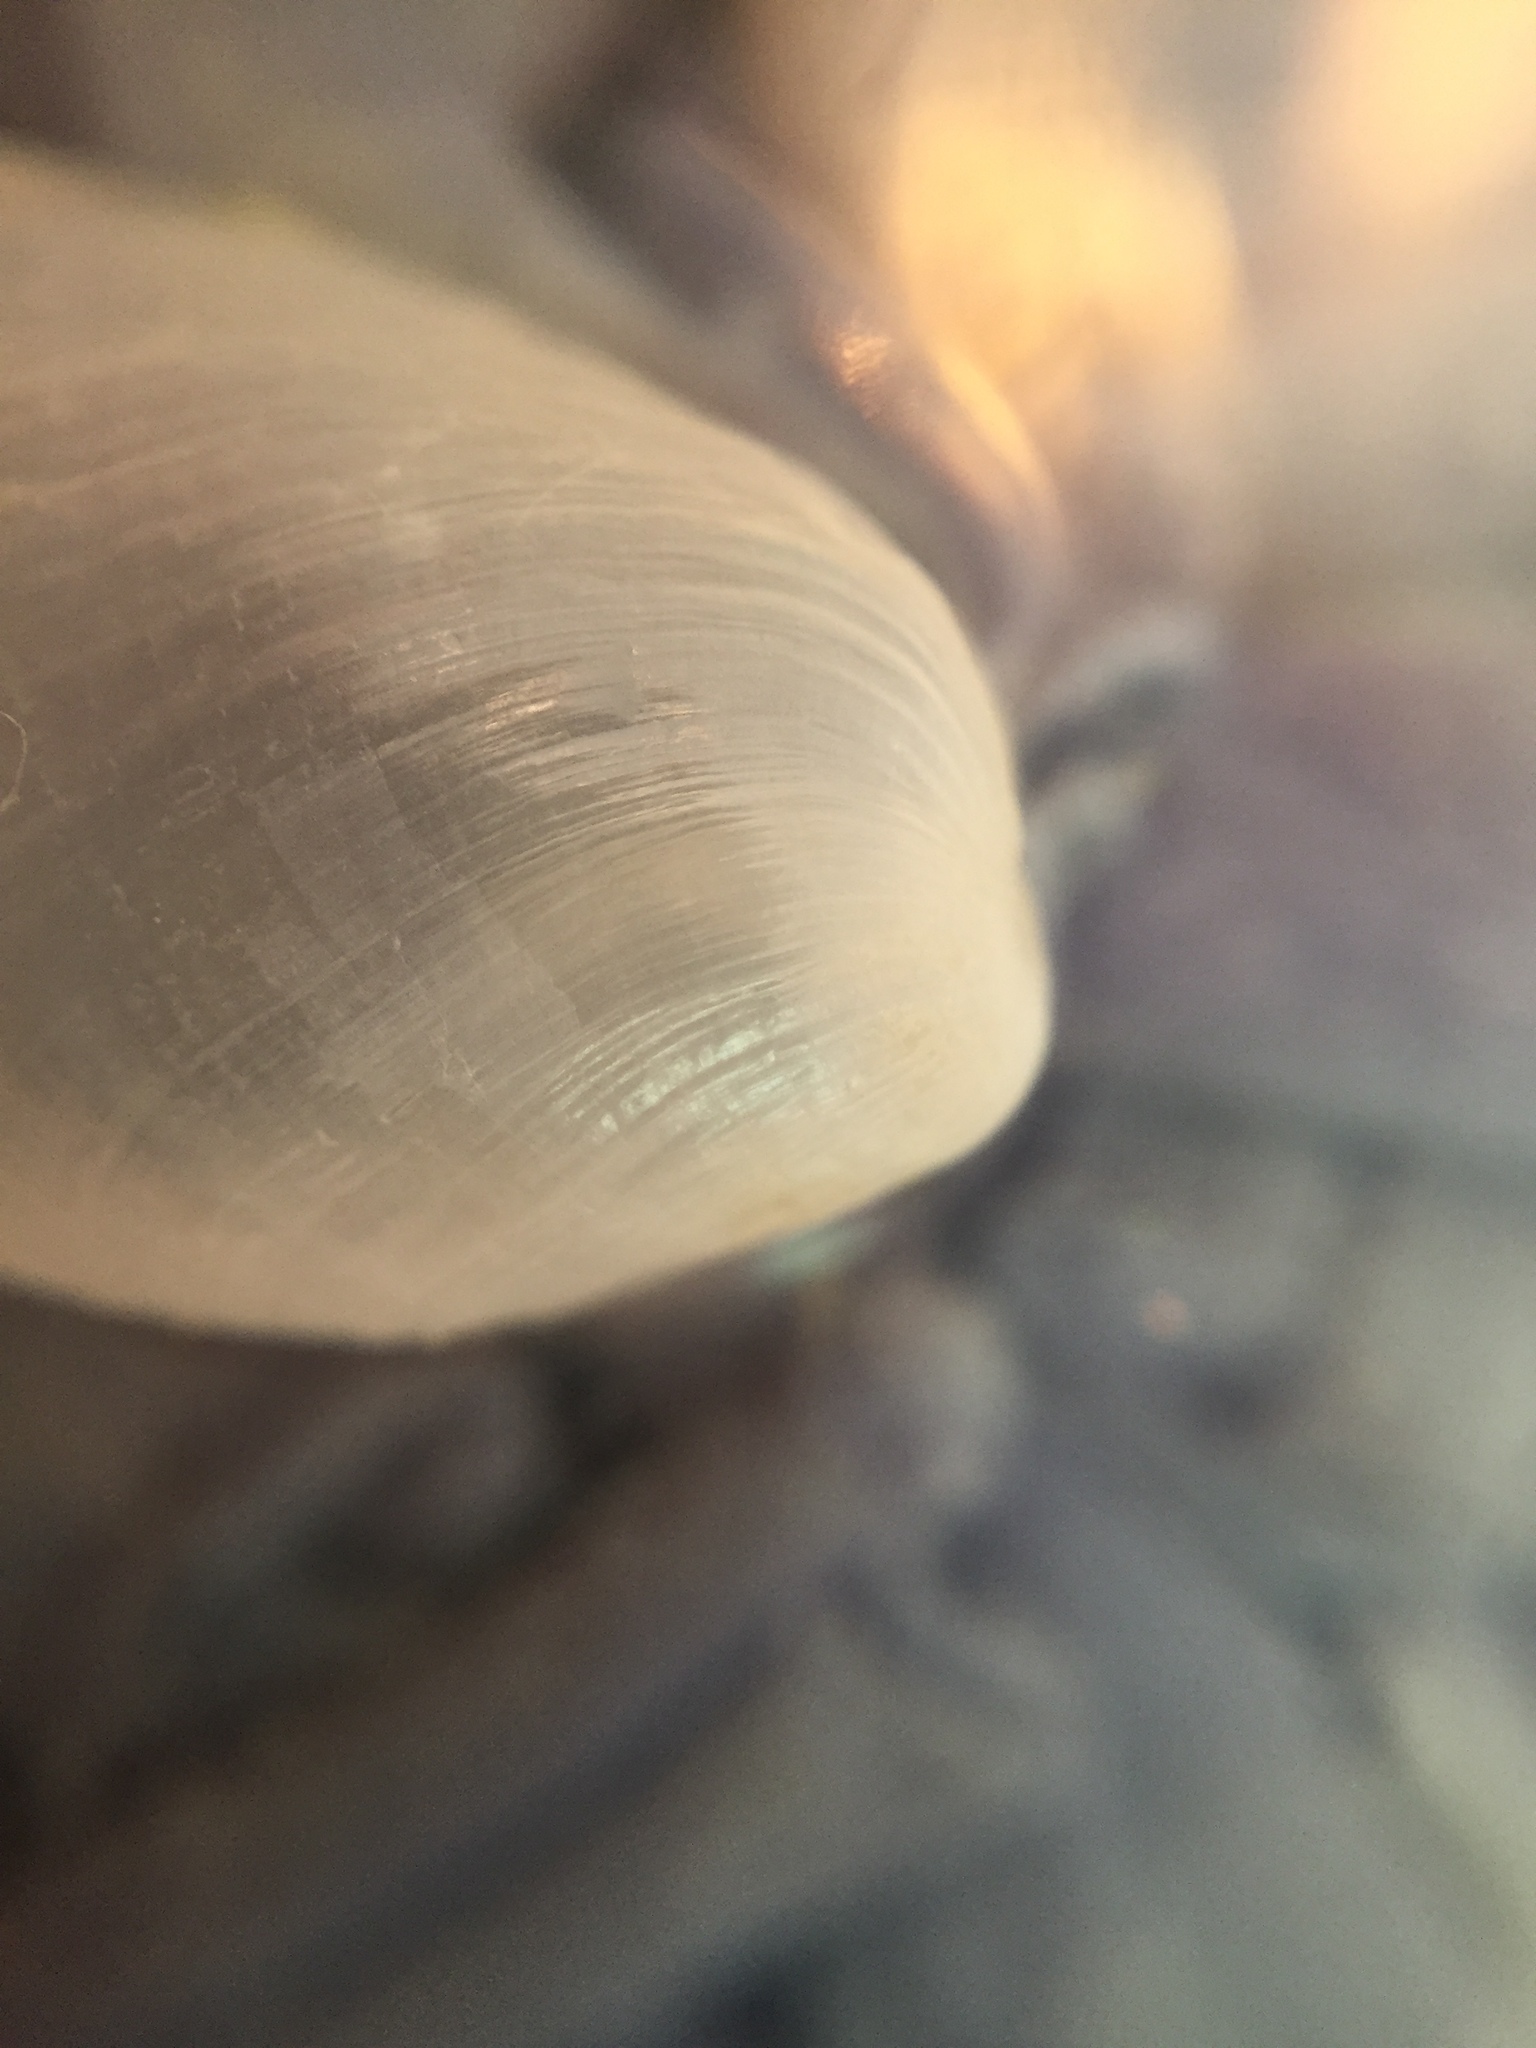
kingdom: Animalia
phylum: Mollusca
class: Gastropoda
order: Cephalaspidea
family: Philinidae
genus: Philine
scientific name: Philine angasi
